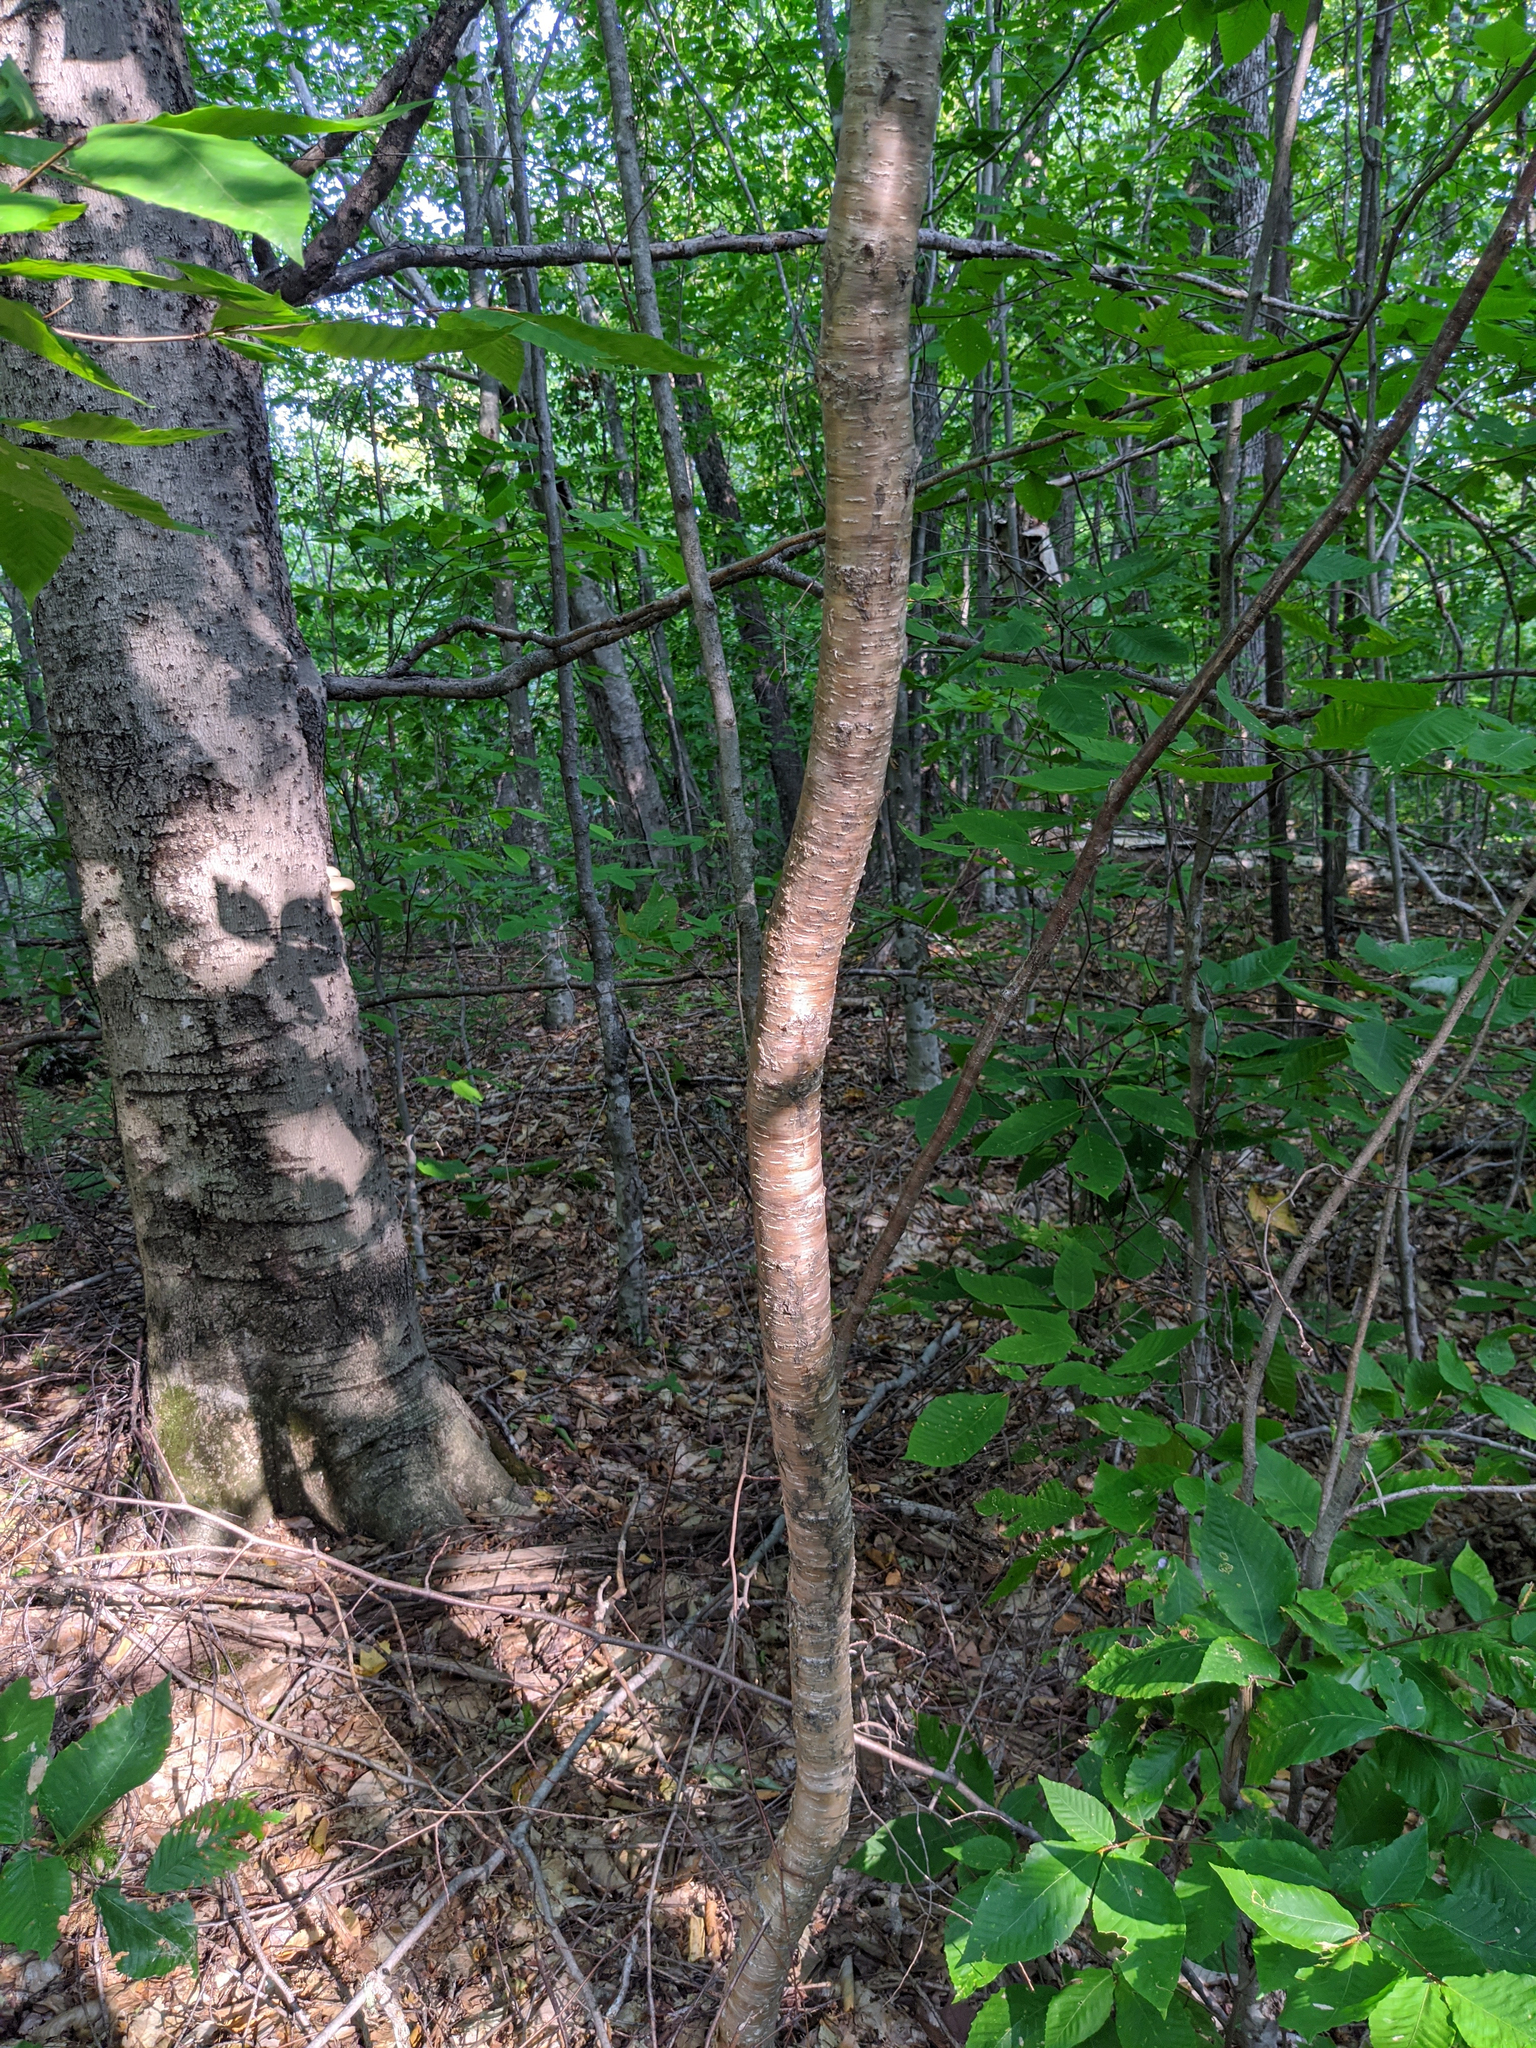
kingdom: Plantae
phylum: Tracheophyta
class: Magnoliopsida
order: Fagales
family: Betulaceae
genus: Betula
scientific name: Betula alleghaniensis
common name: Yellow birch
